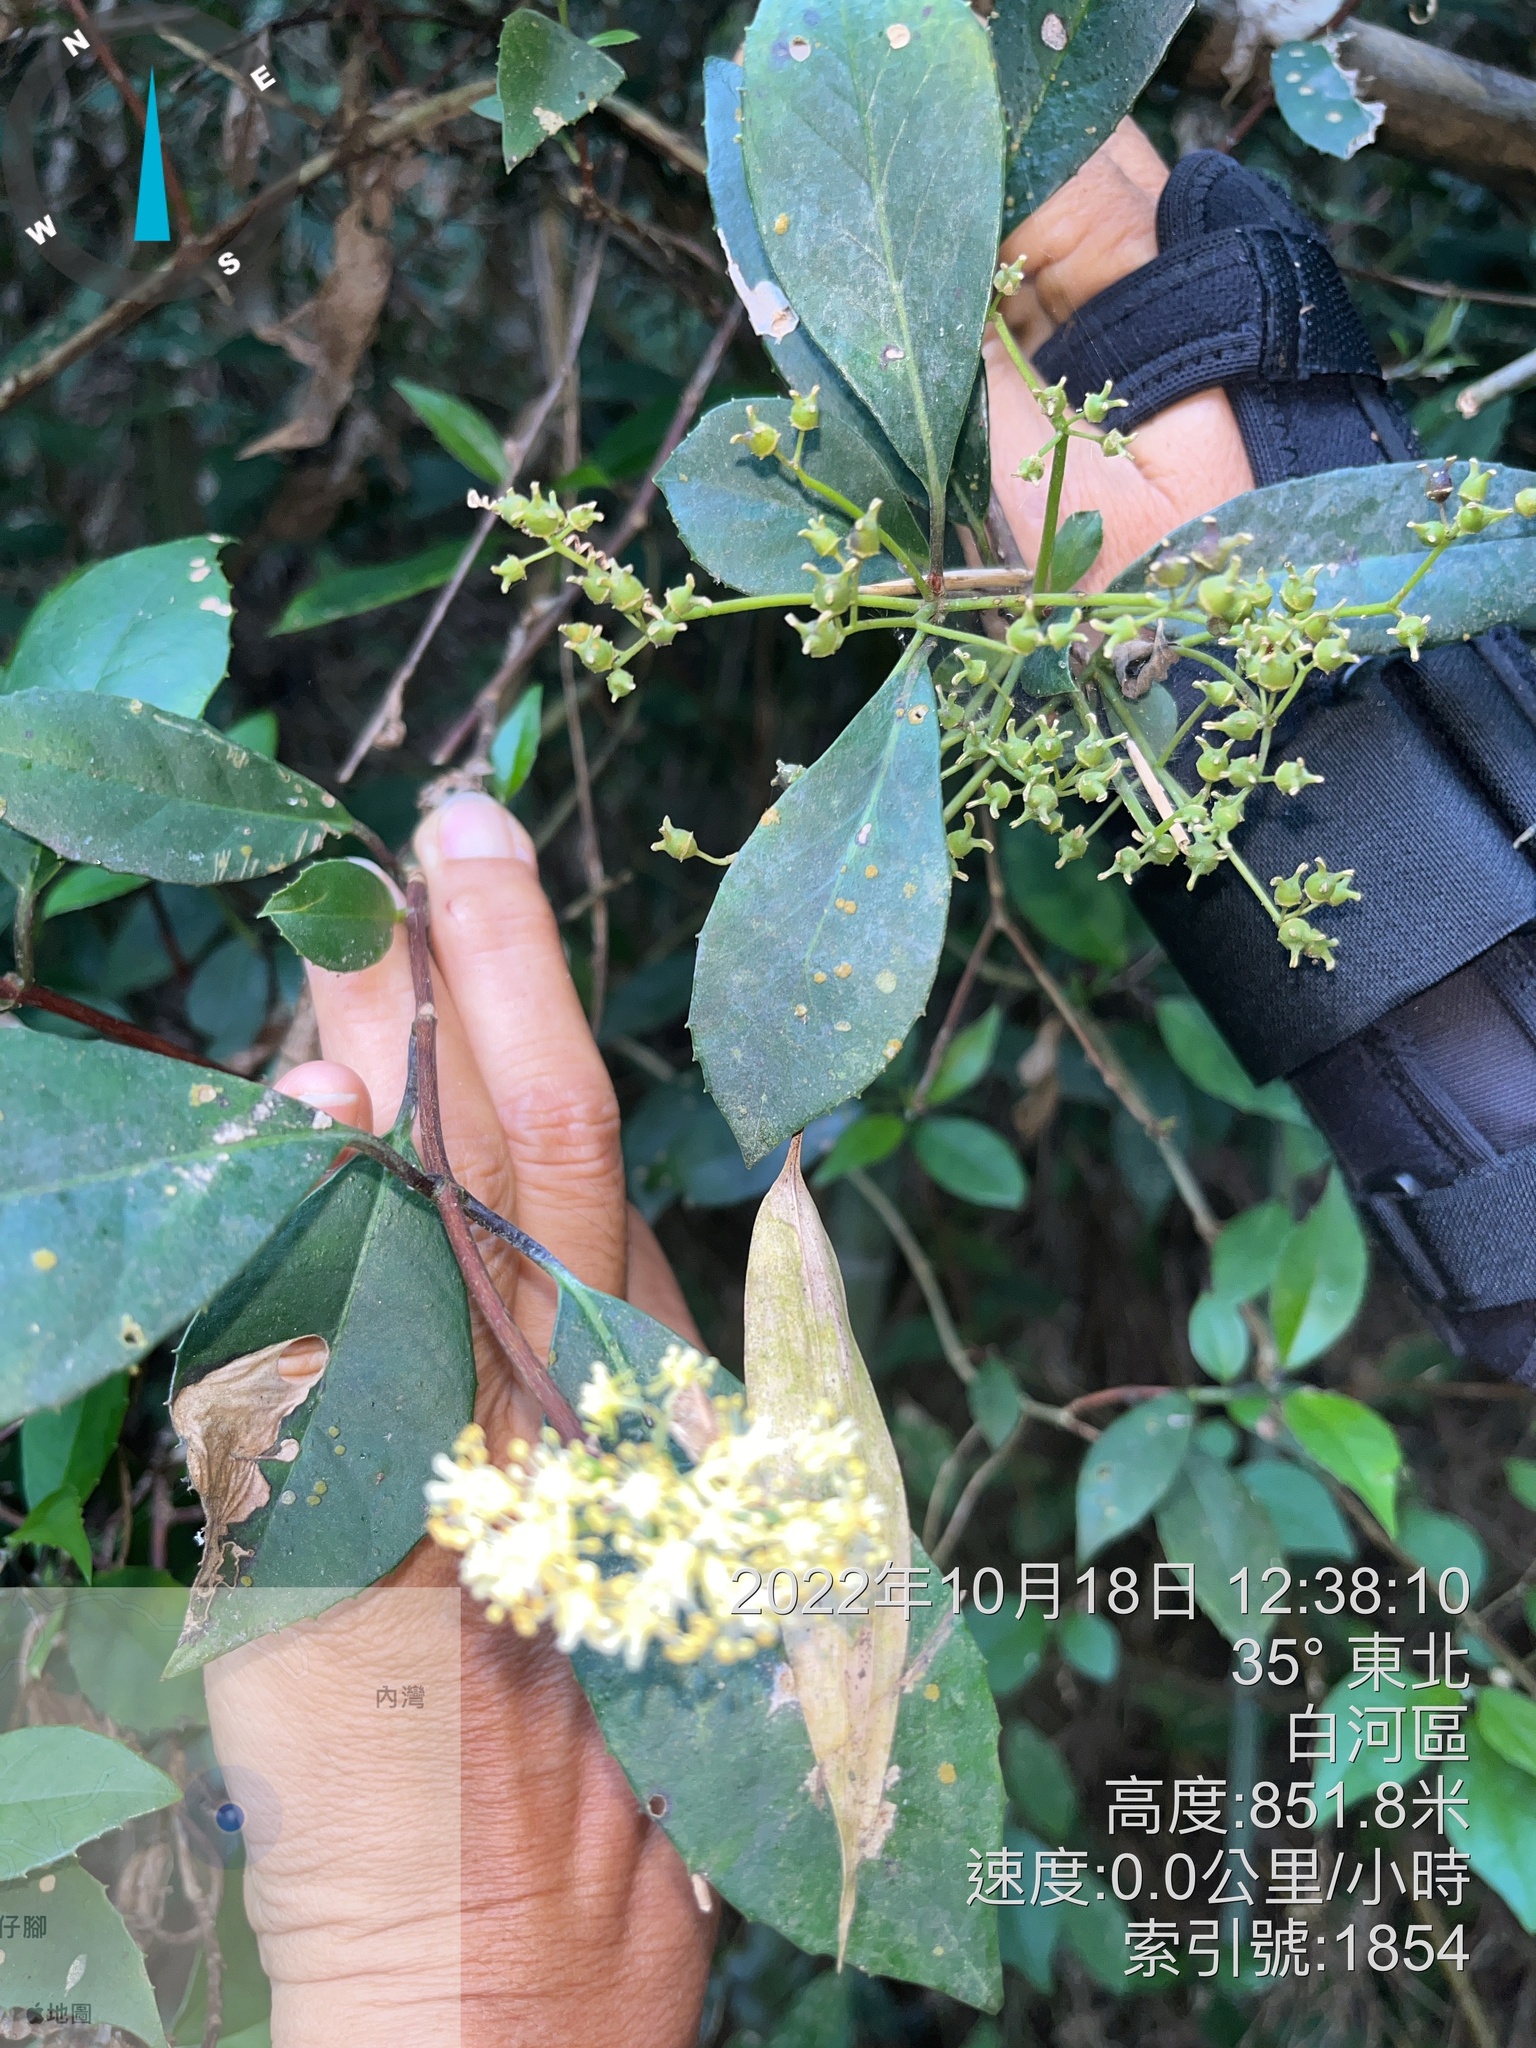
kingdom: Plantae
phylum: Tracheophyta
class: Magnoliopsida
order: Cornales
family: Hydrangeaceae
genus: Hydrangea
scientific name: Hydrangea chinensis
